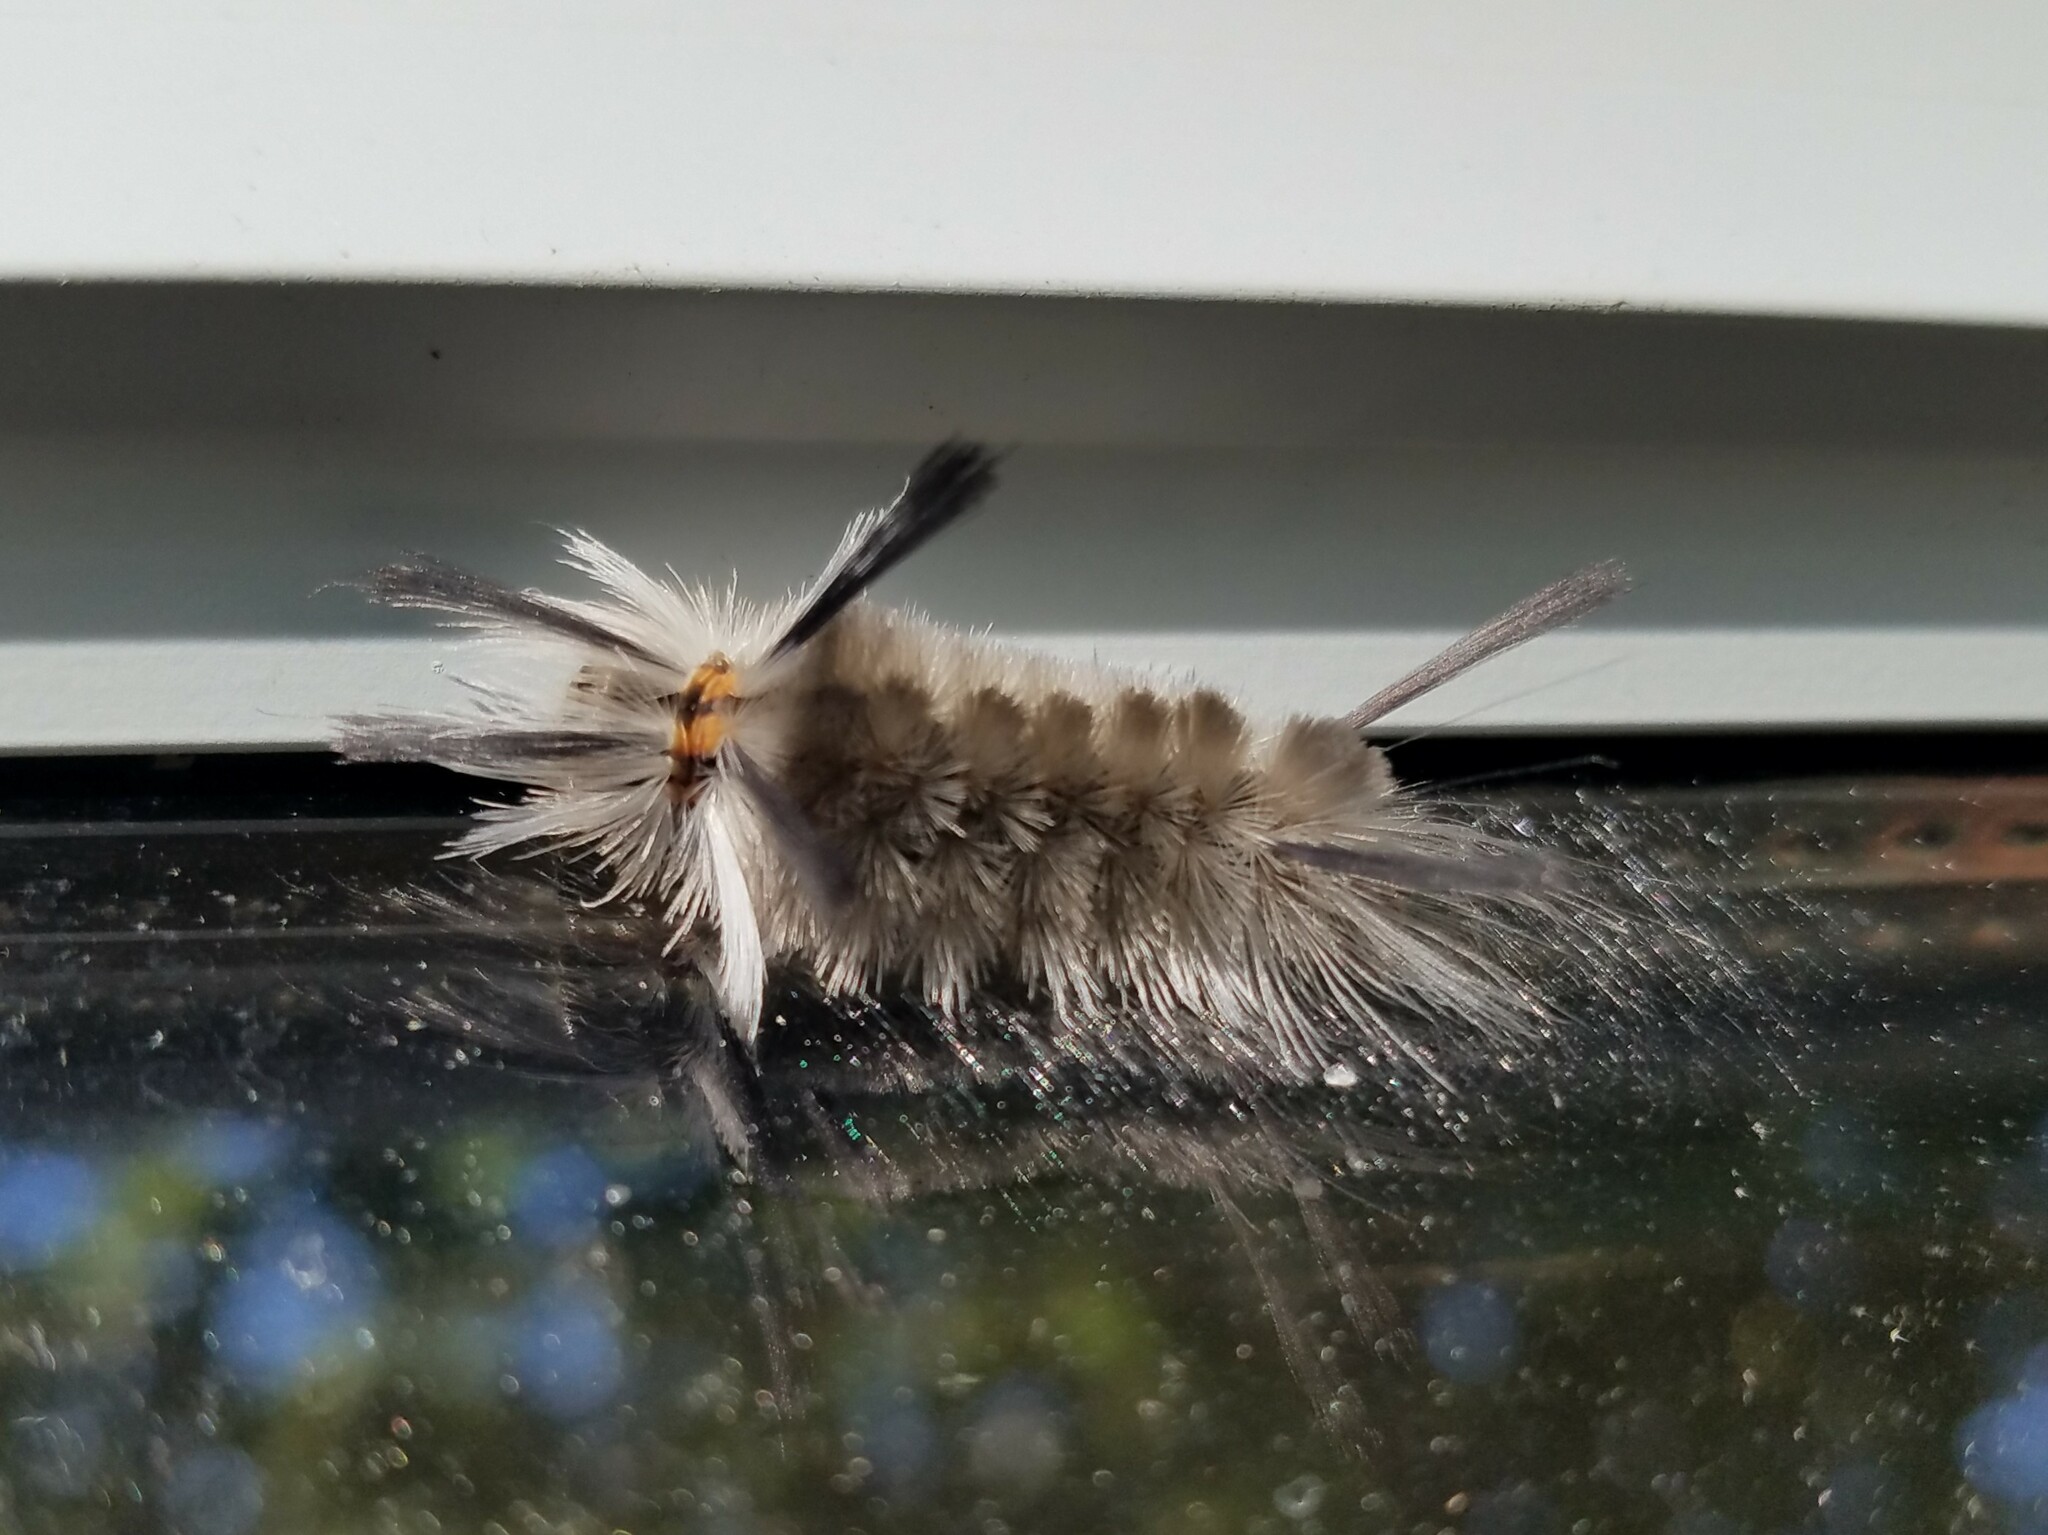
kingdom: Animalia
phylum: Arthropoda
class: Insecta
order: Lepidoptera
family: Erebidae
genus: Halysidota
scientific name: Halysidota tessellaris
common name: Banded tussock moth
